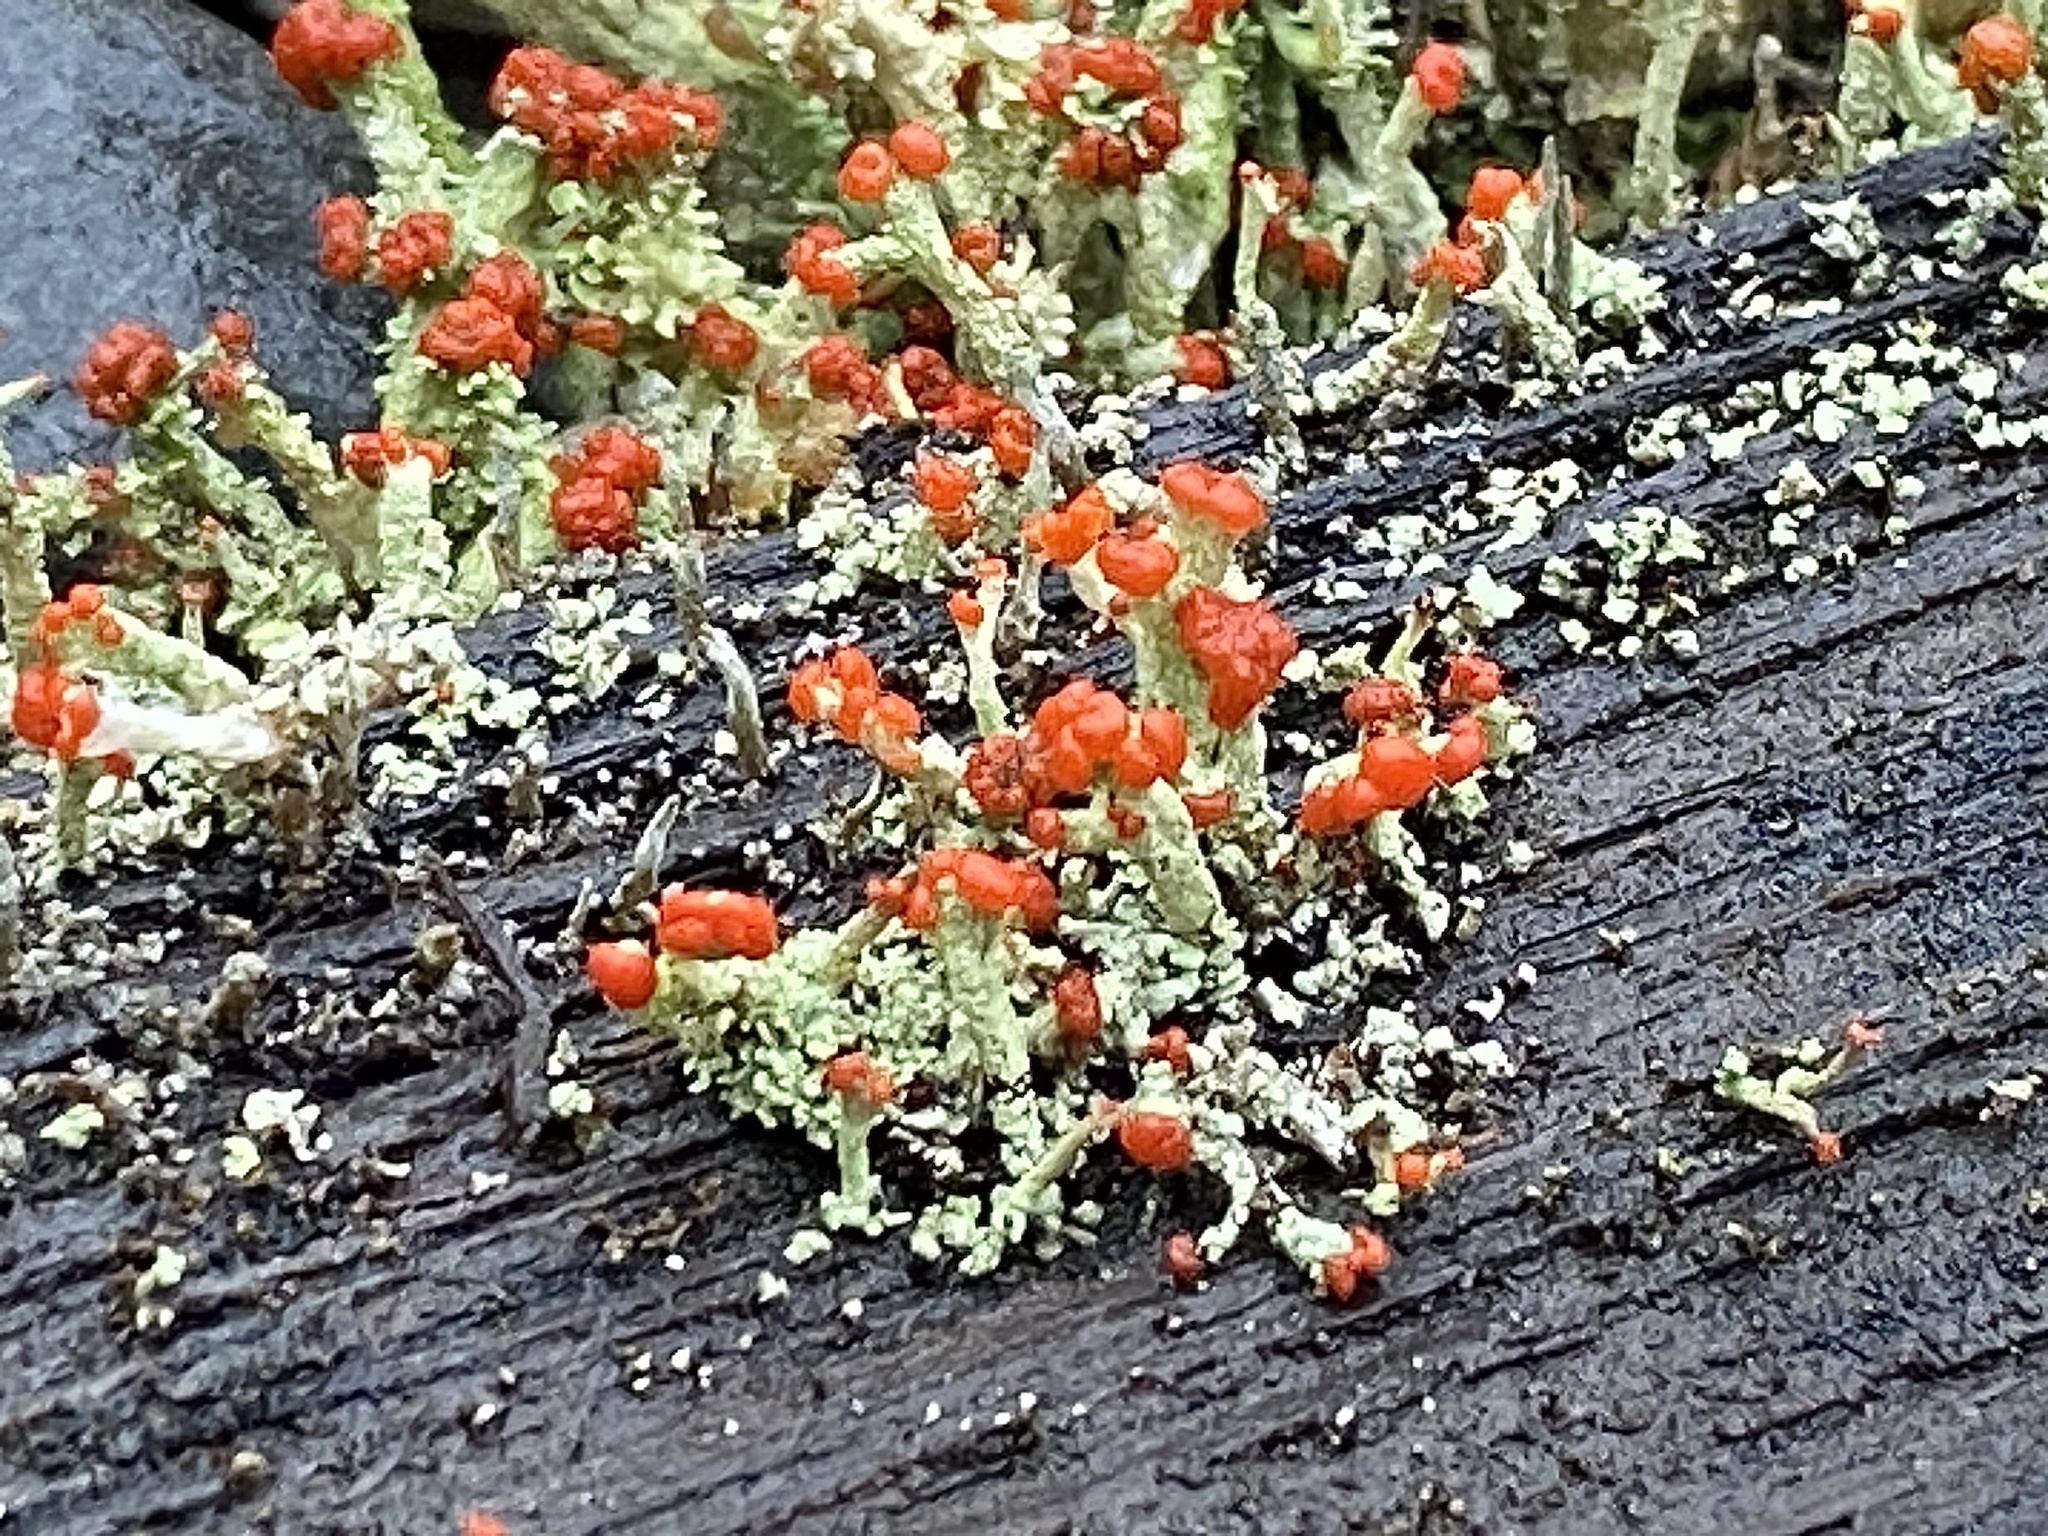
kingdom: Fungi
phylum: Ascomycota
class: Lecanoromycetes
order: Lecanorales
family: Cladoniaceae
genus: Cladonia
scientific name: Cladonia cristatella
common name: British soldier lichen
